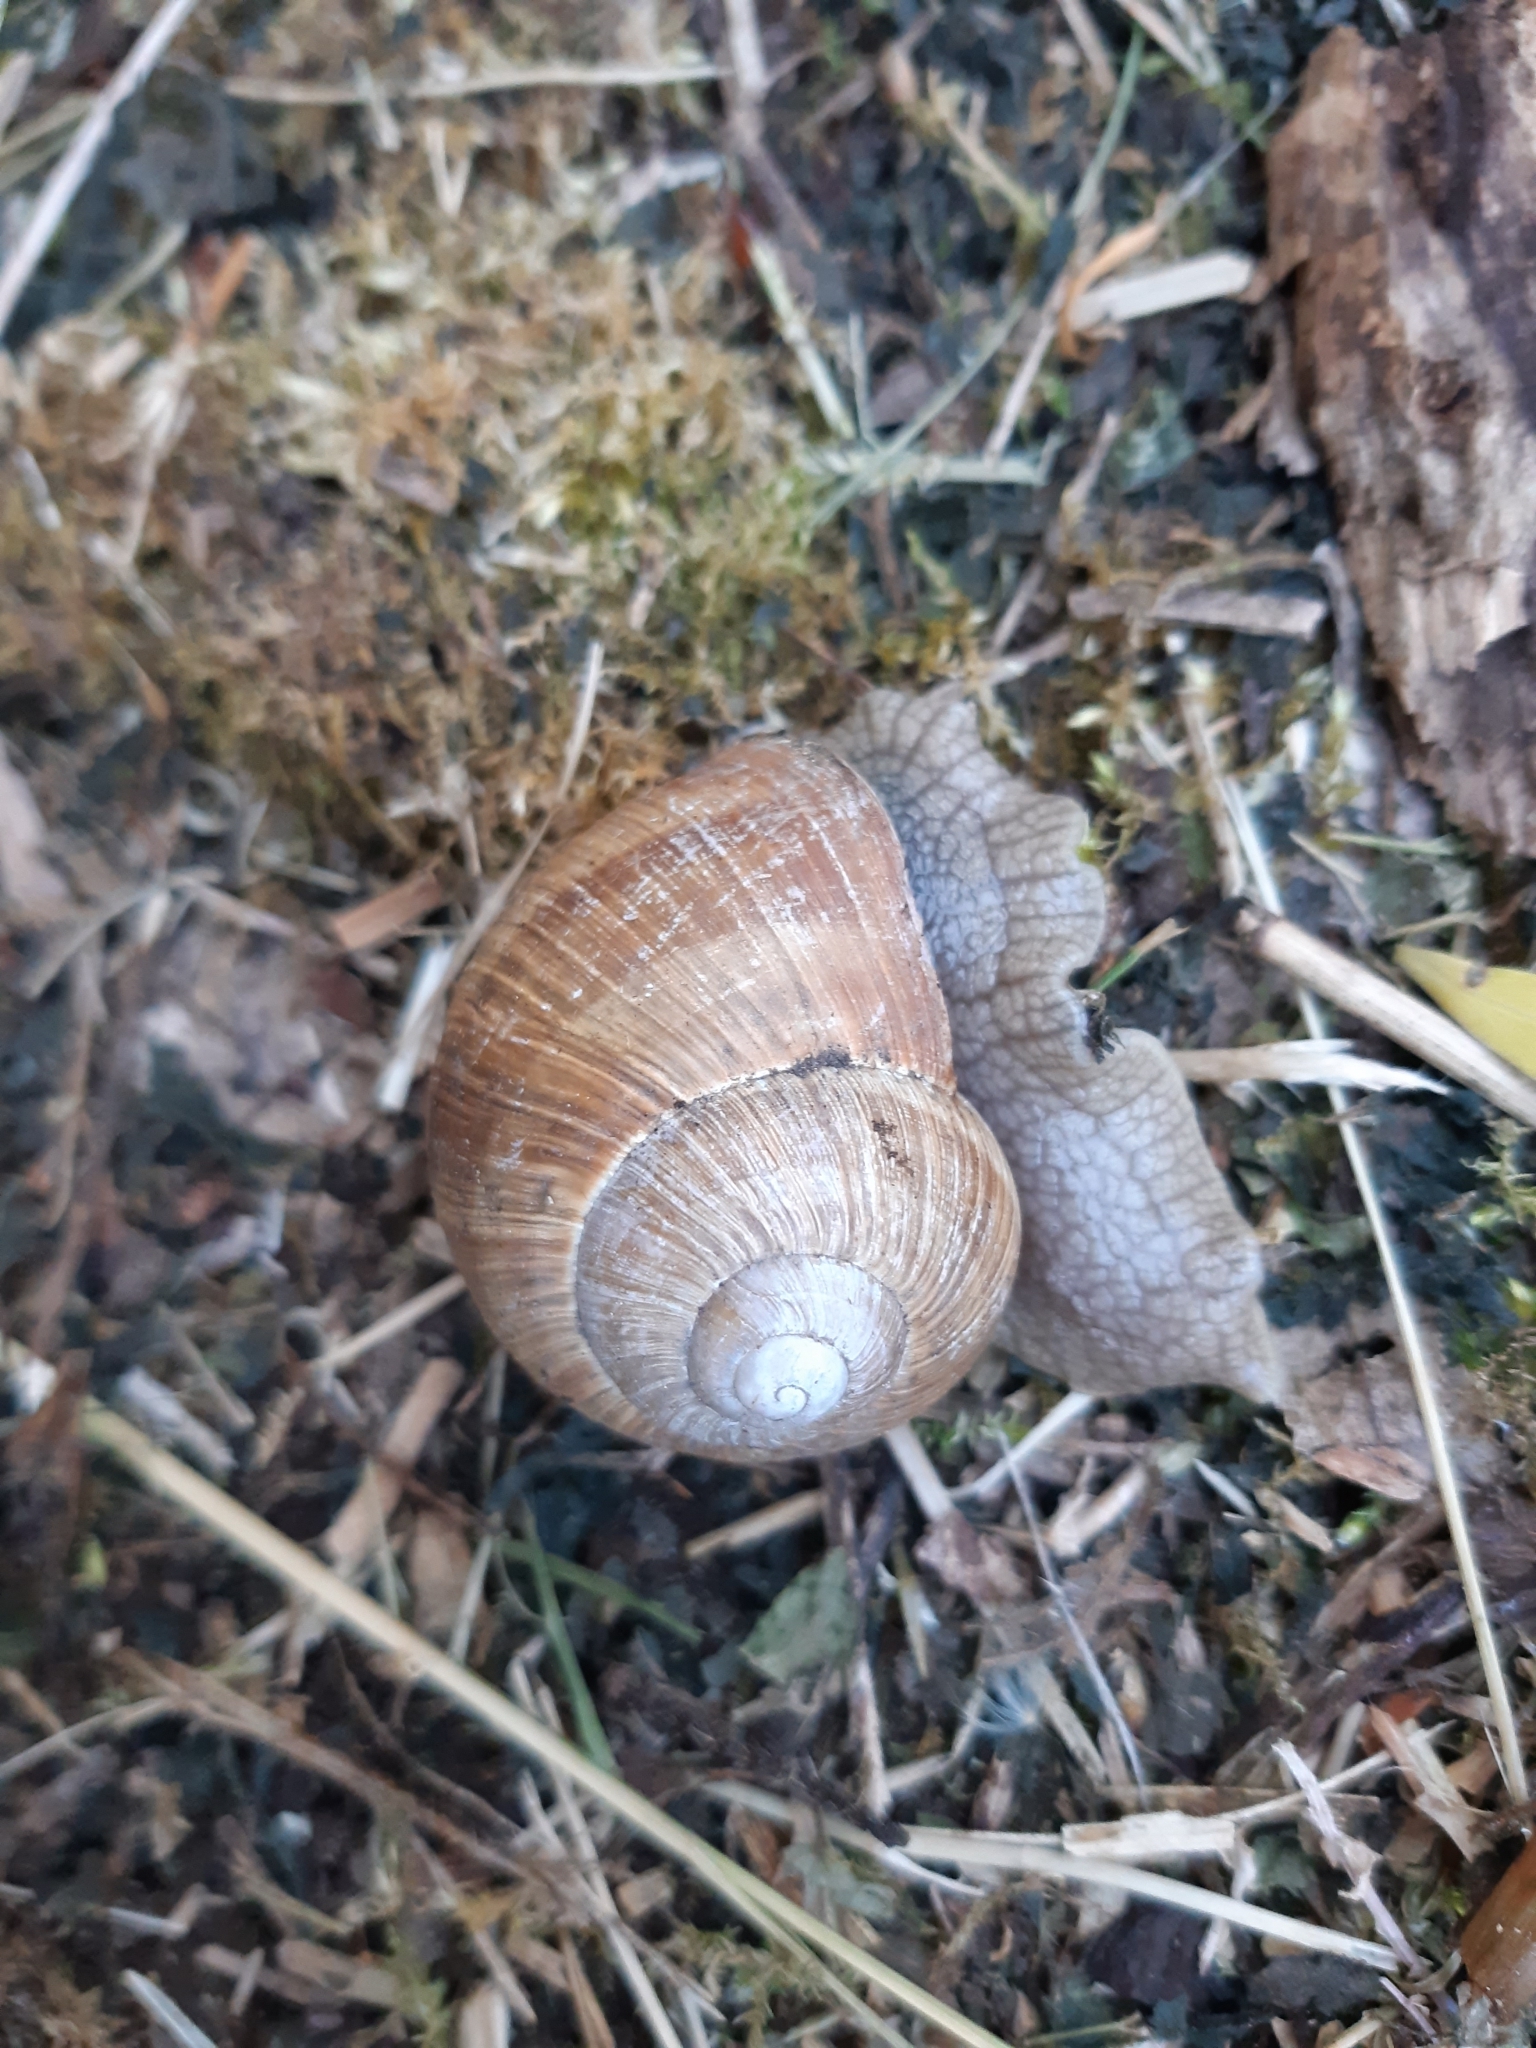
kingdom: Animalia
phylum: Mollusca
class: Gastropoda
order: Stylommatophora
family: Helicidae
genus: Helix
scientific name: Helix pomatia
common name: Roman snail
